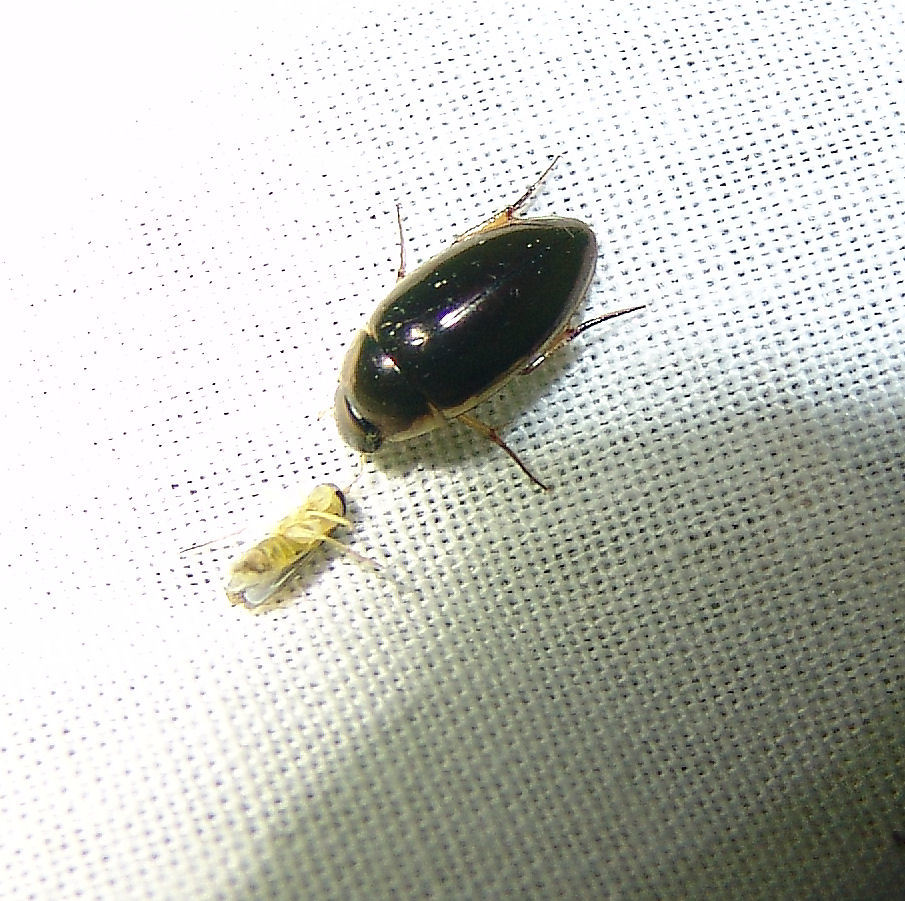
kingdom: Animalia
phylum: Arthropoda
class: Insecta
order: Coleoptera
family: Hydrophilidae
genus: Tropisternus
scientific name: Tropisternus lateralis
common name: Lateral-banded water scavenger beetle
